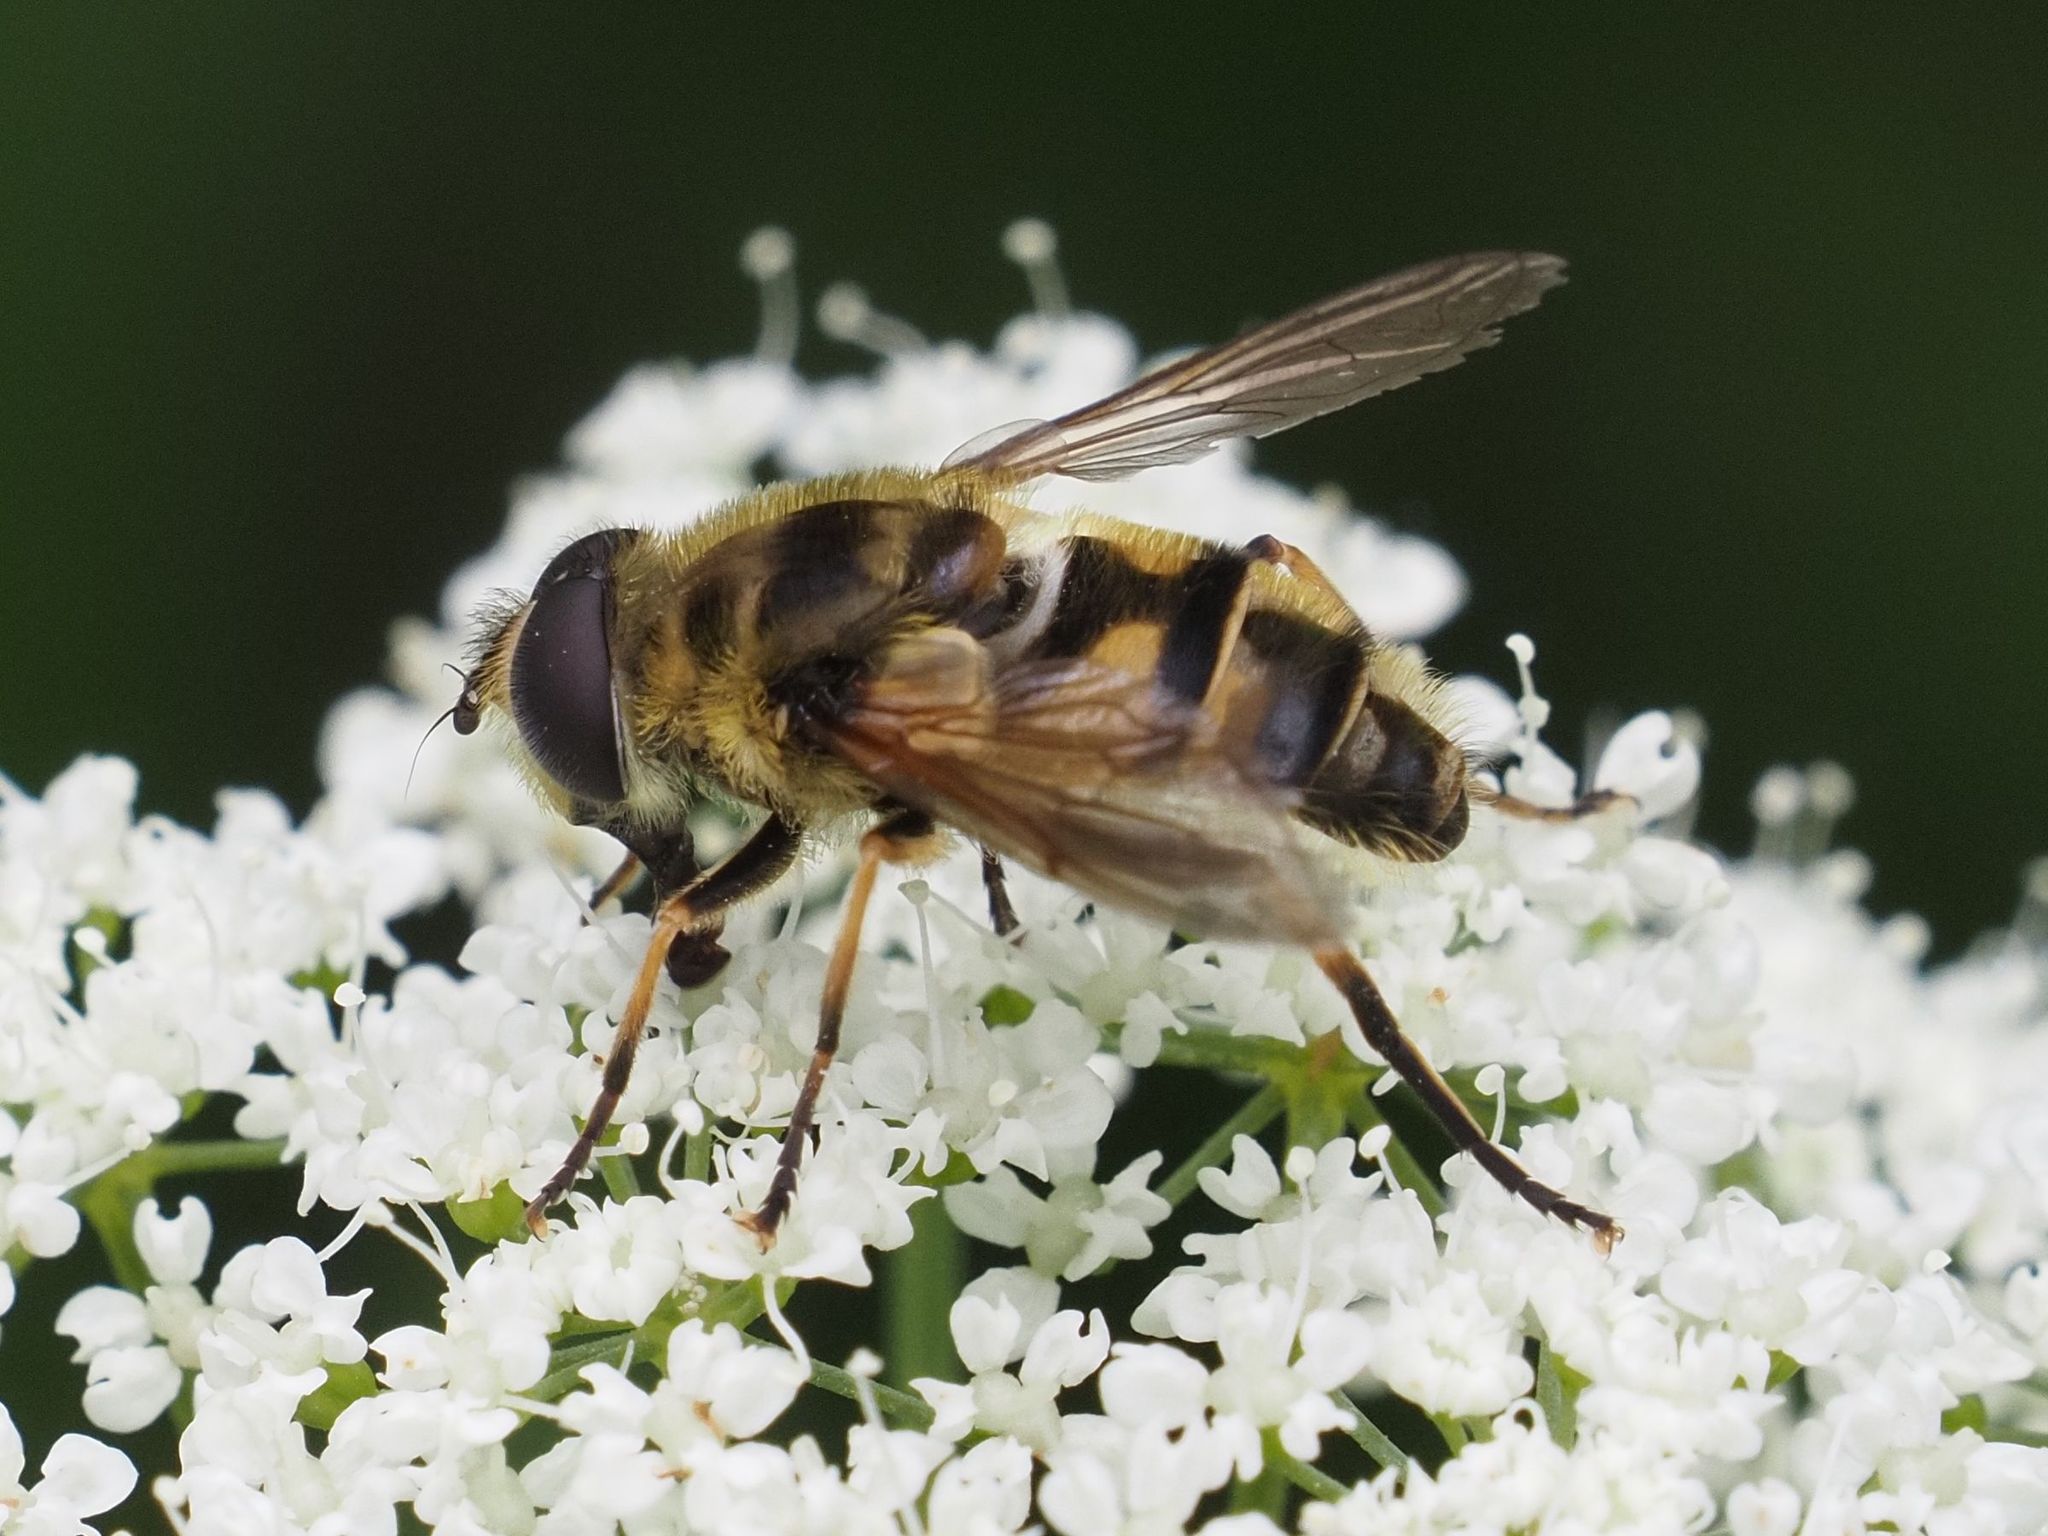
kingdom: Animalia
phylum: Arthropoda
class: Insecta
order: Diptera
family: Syrphidae
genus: Myathropa
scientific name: Myathropa florea
